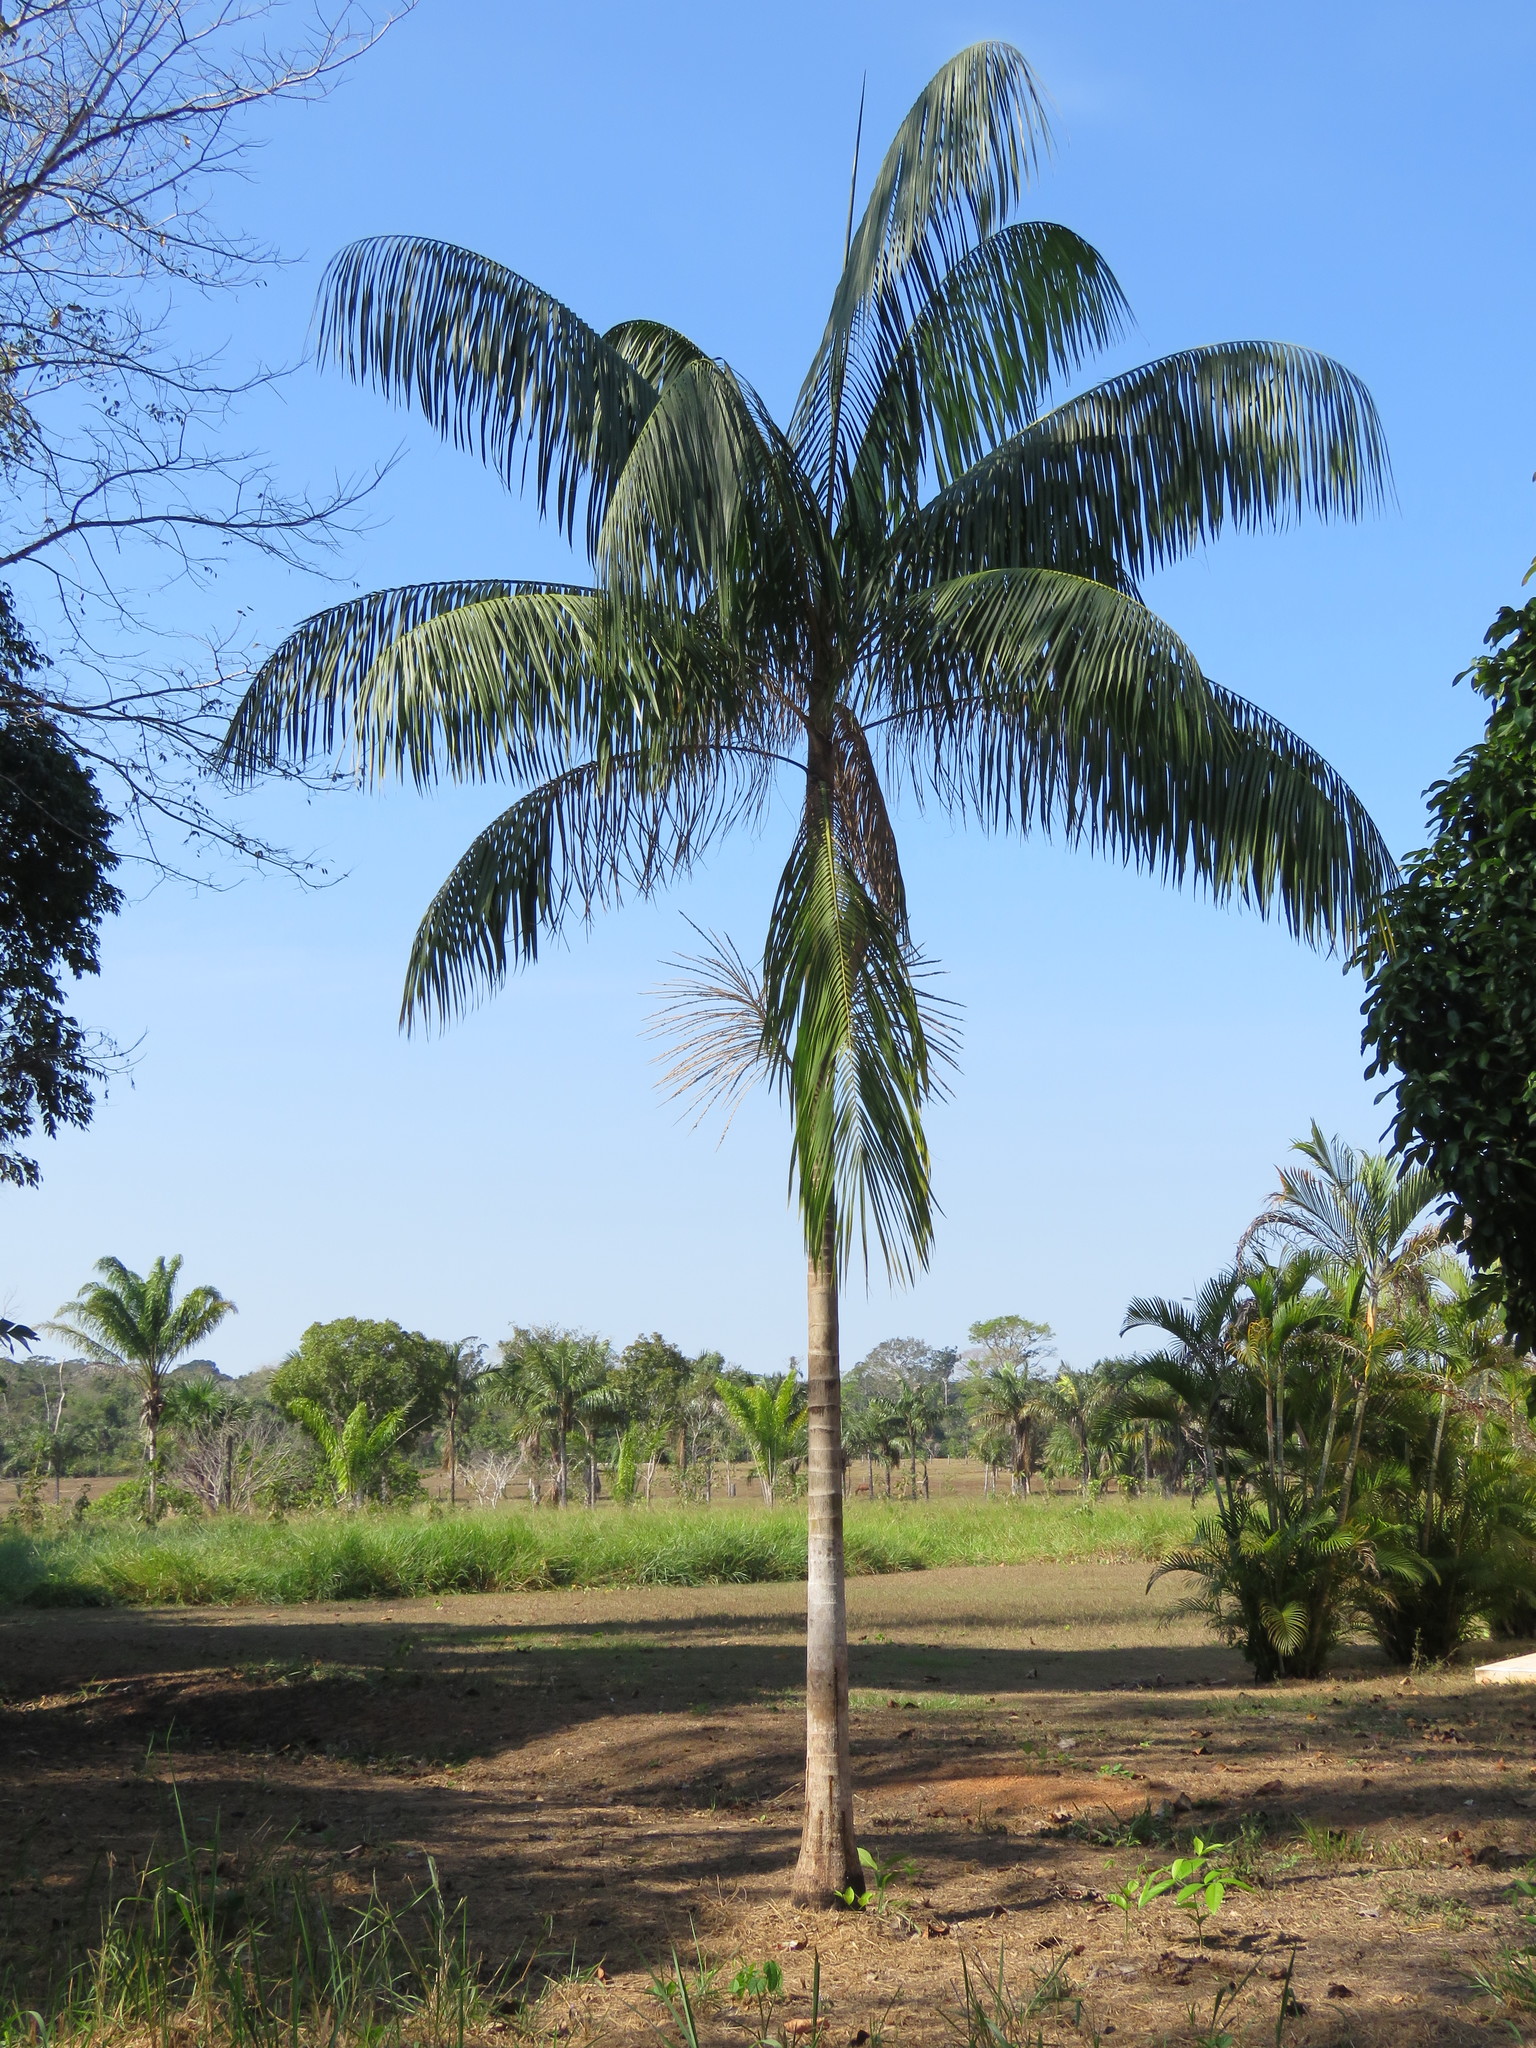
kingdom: Plantae
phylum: Tracheophyta
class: Liliopsida
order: Arecales
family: Arecaceae
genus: Euterpe
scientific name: Euterpe precatoria
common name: Mountain-cabbage
